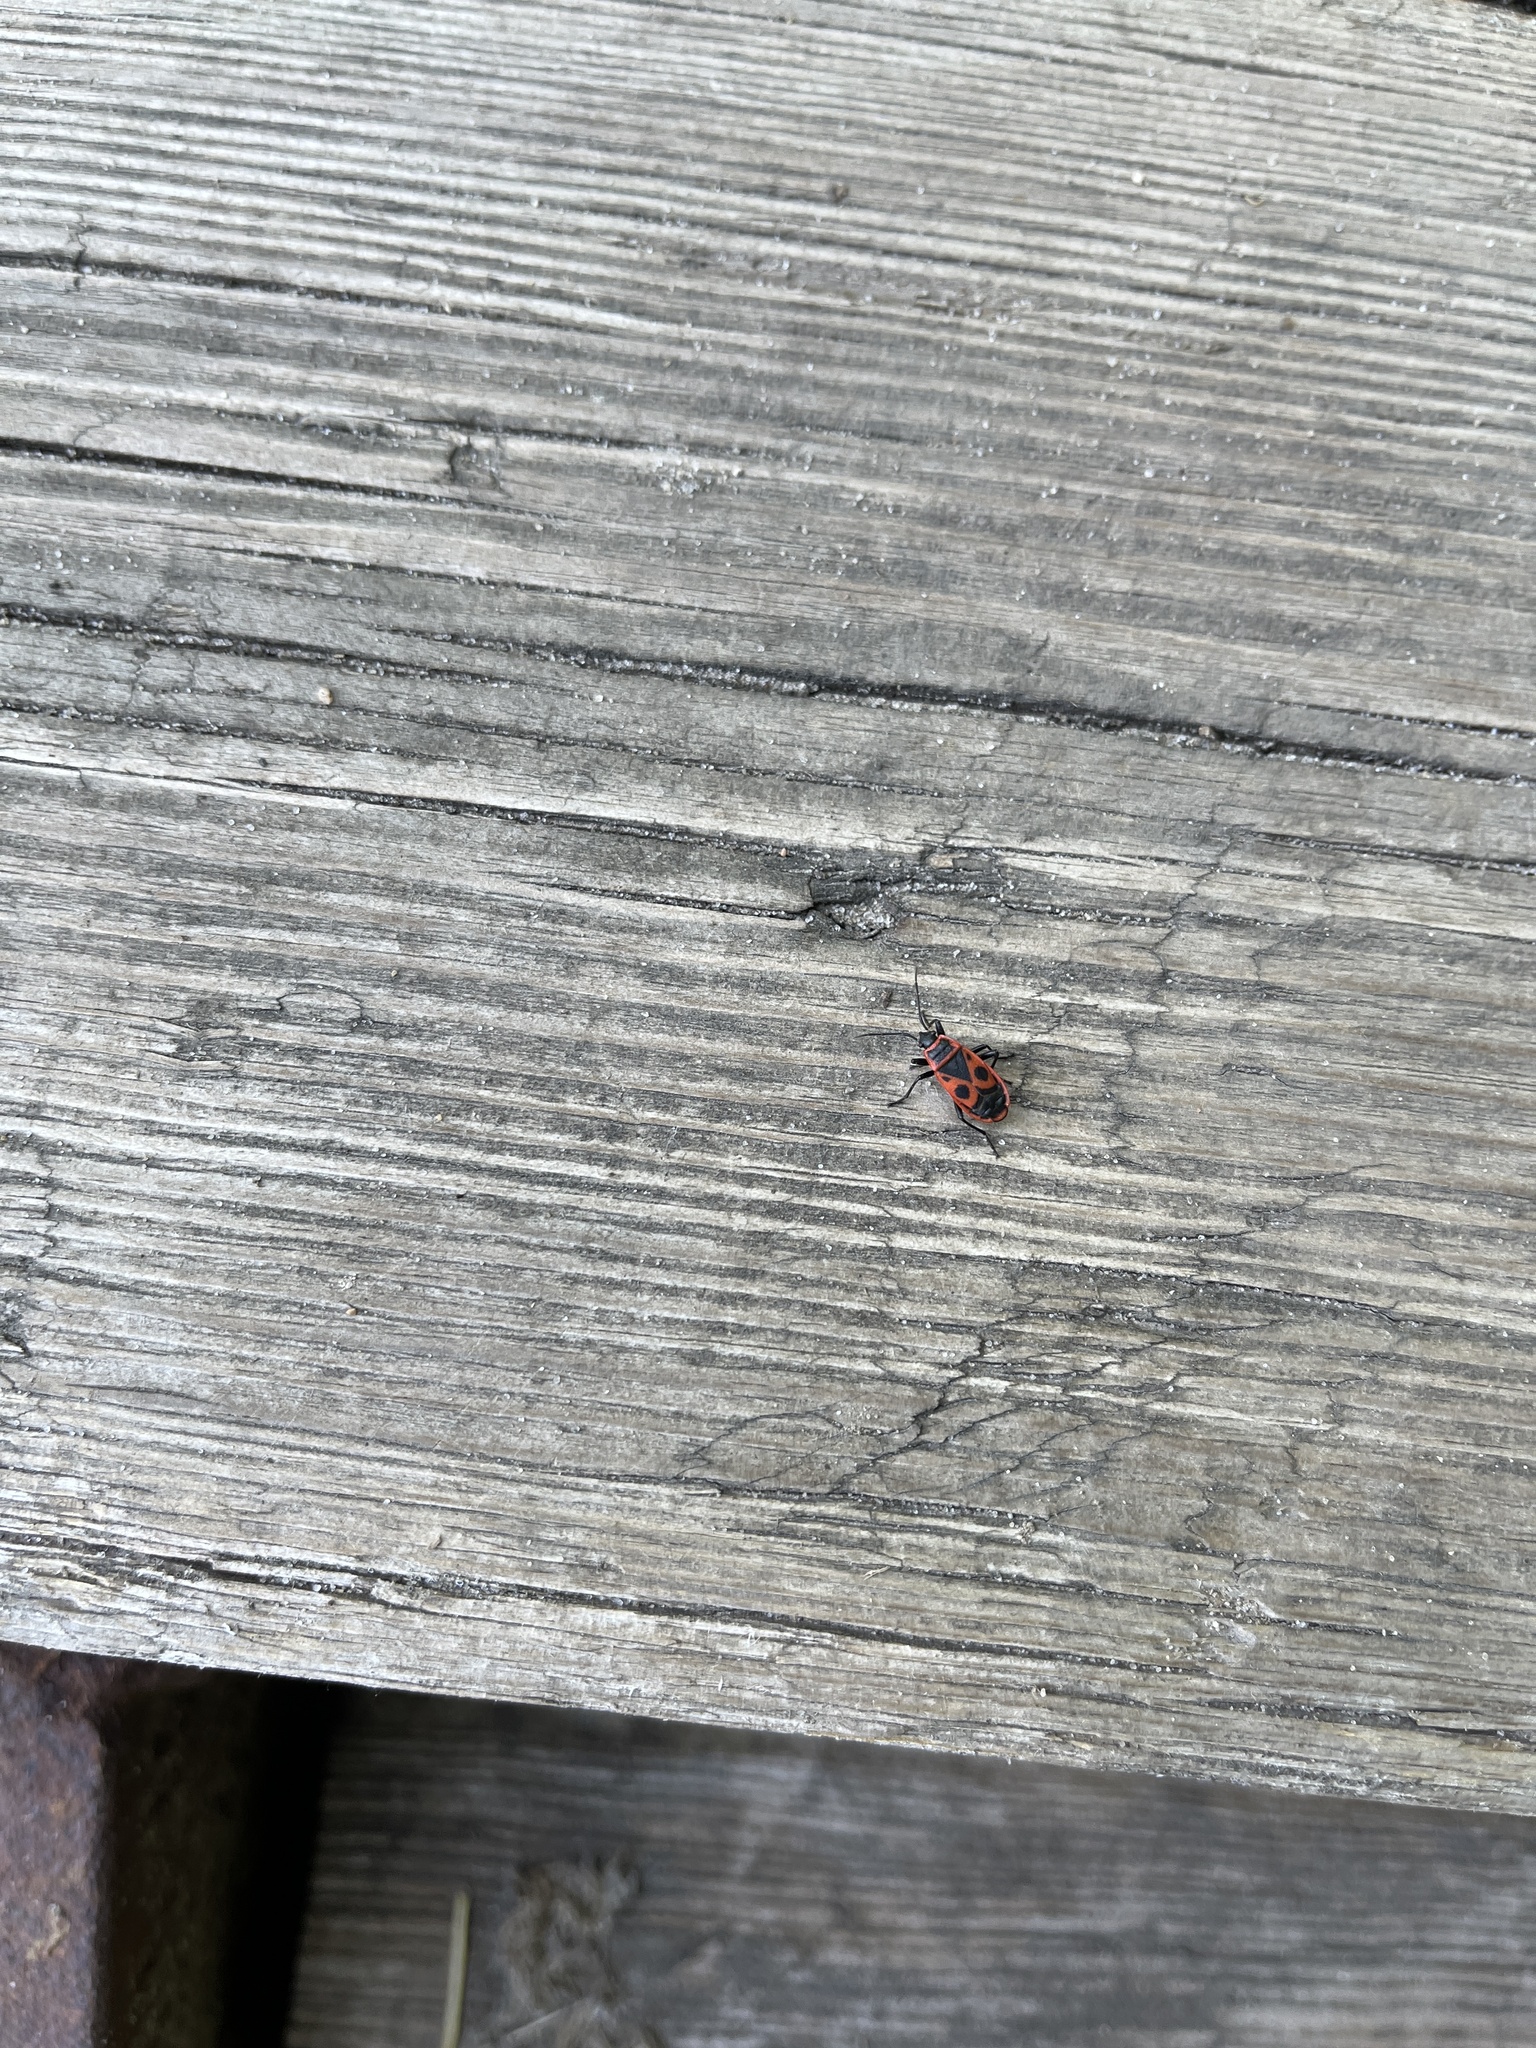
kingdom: Animalia
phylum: Arthropoda
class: Insecta
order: Hemiptera
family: Pyrrhocoridae
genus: Pyrrhocoris
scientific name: Pyrrhocoris apterus
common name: Firebug
